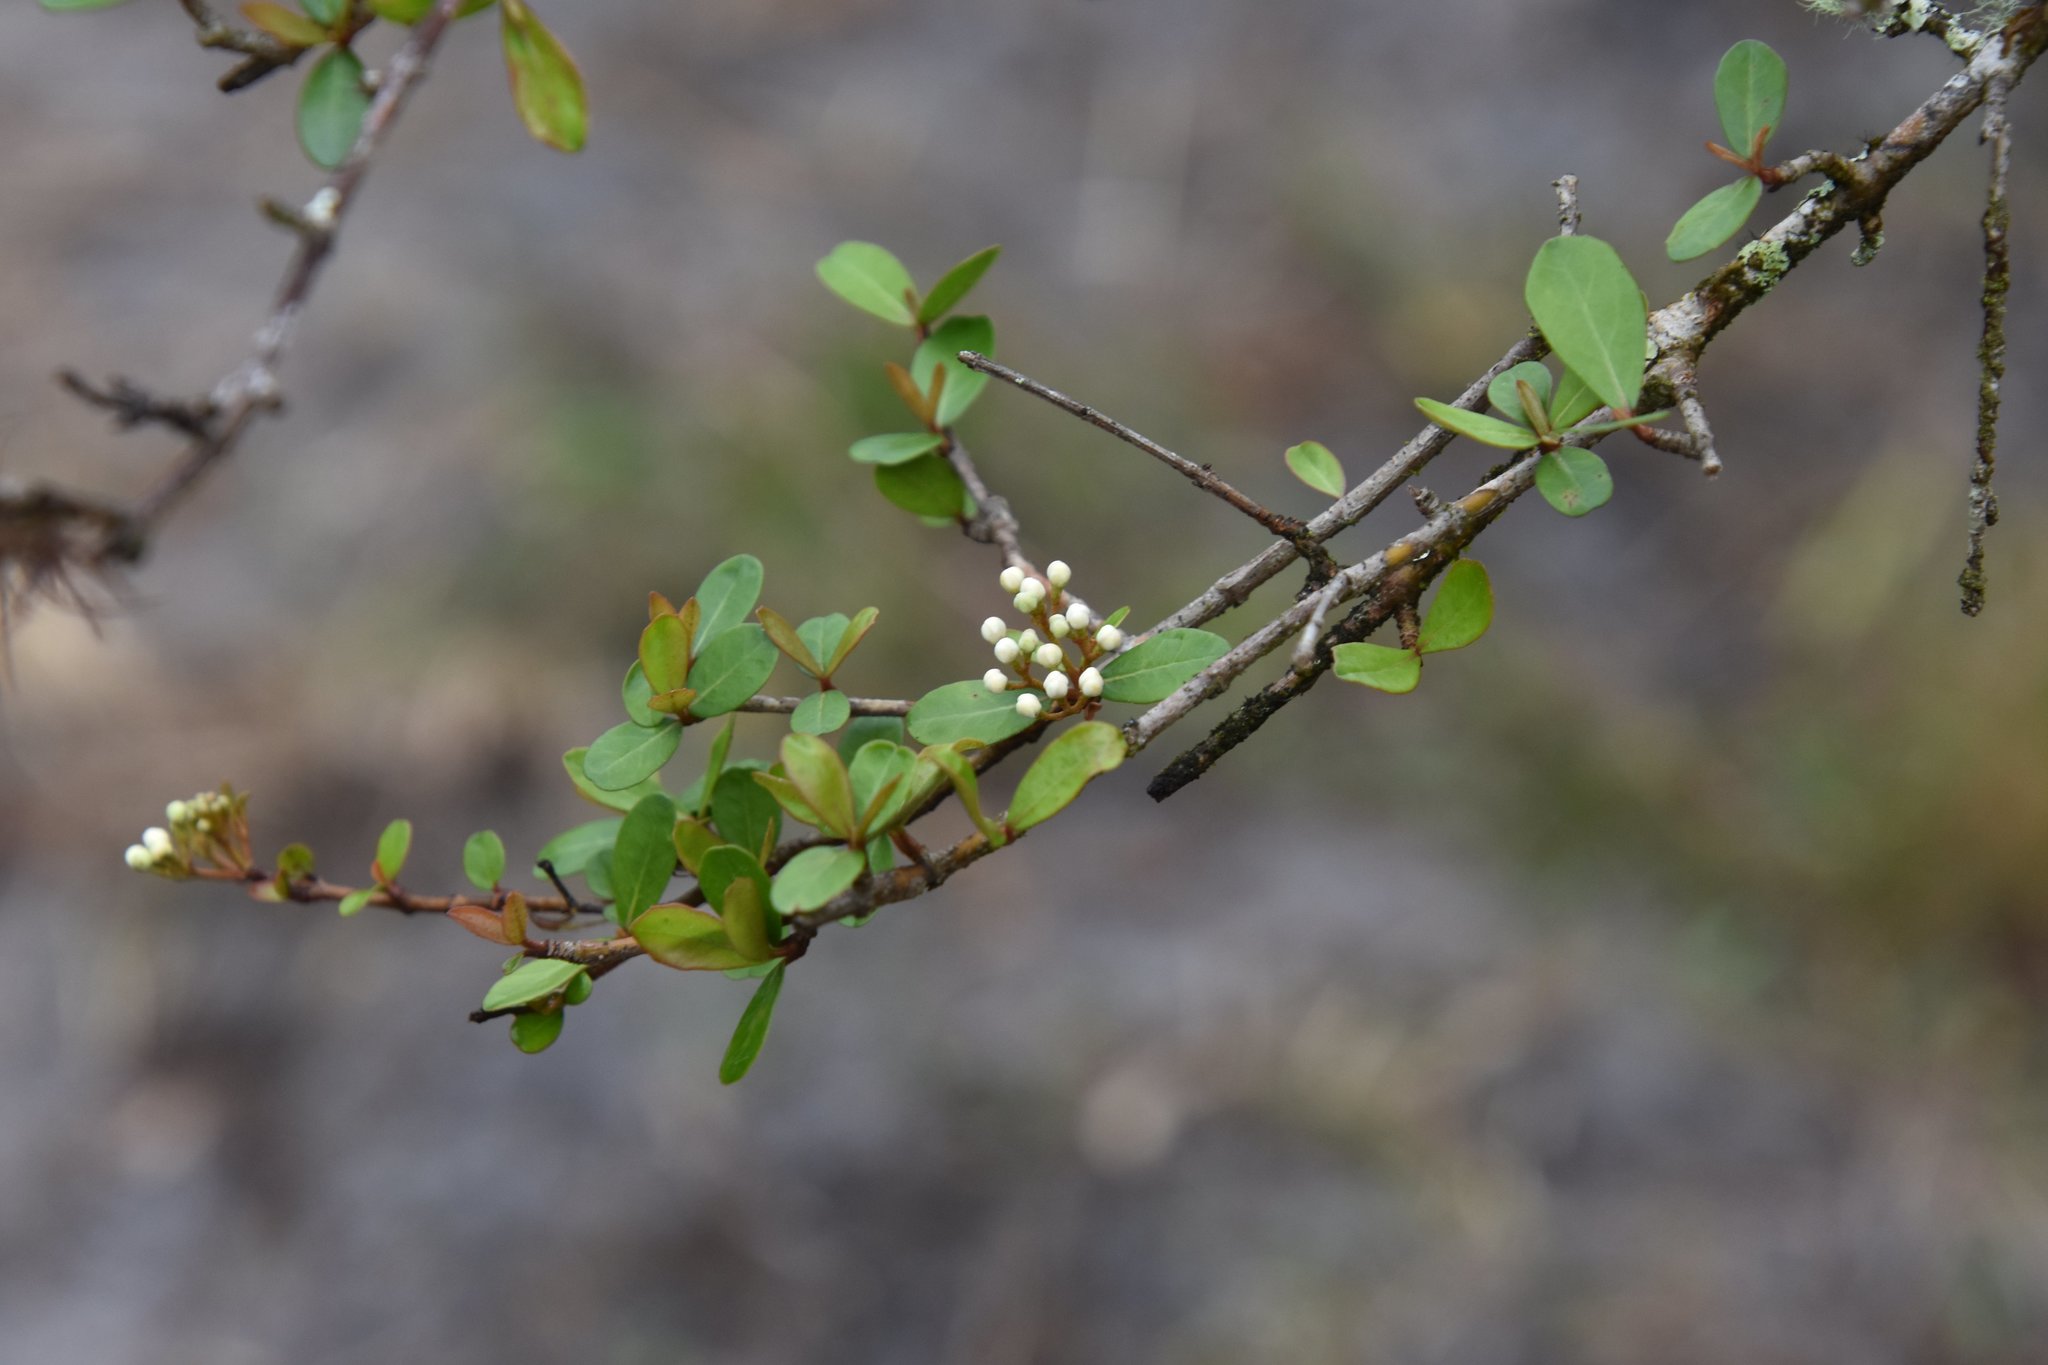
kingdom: Plantae
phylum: Tracheophyta
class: Magnoliopsida
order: Dipsacales
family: Viburnaceae
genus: Viburnum
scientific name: Viburnum obovatum
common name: Walter's viburnum
